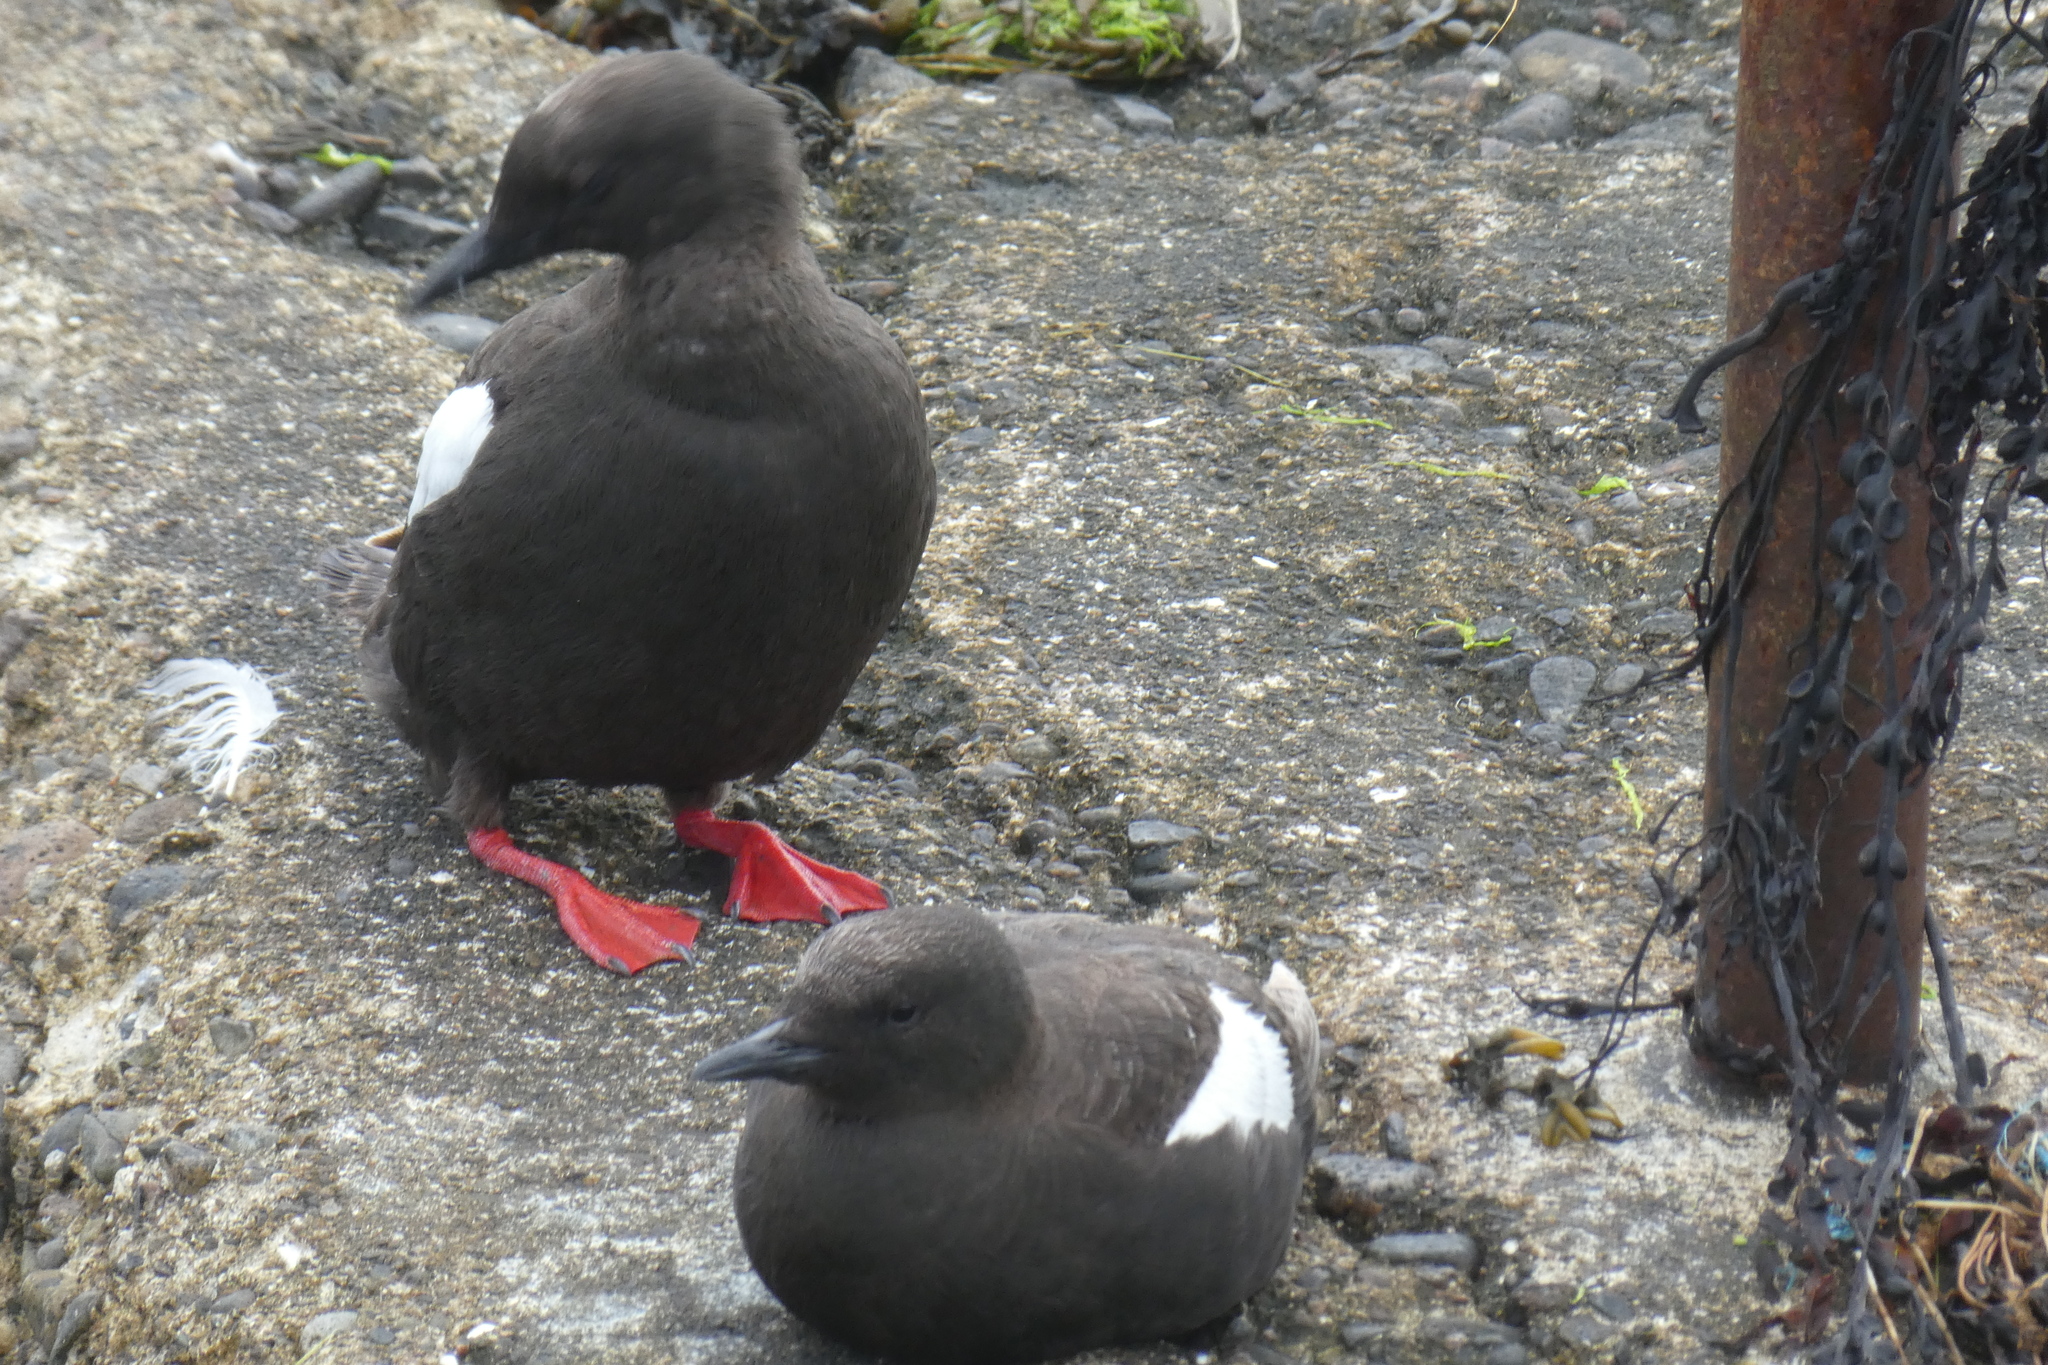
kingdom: Animalia
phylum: Chordata
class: Aves
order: Charadriiformes
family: Alcidae
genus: Cepphus
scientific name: Cepphus grylle
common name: Black guillemot
